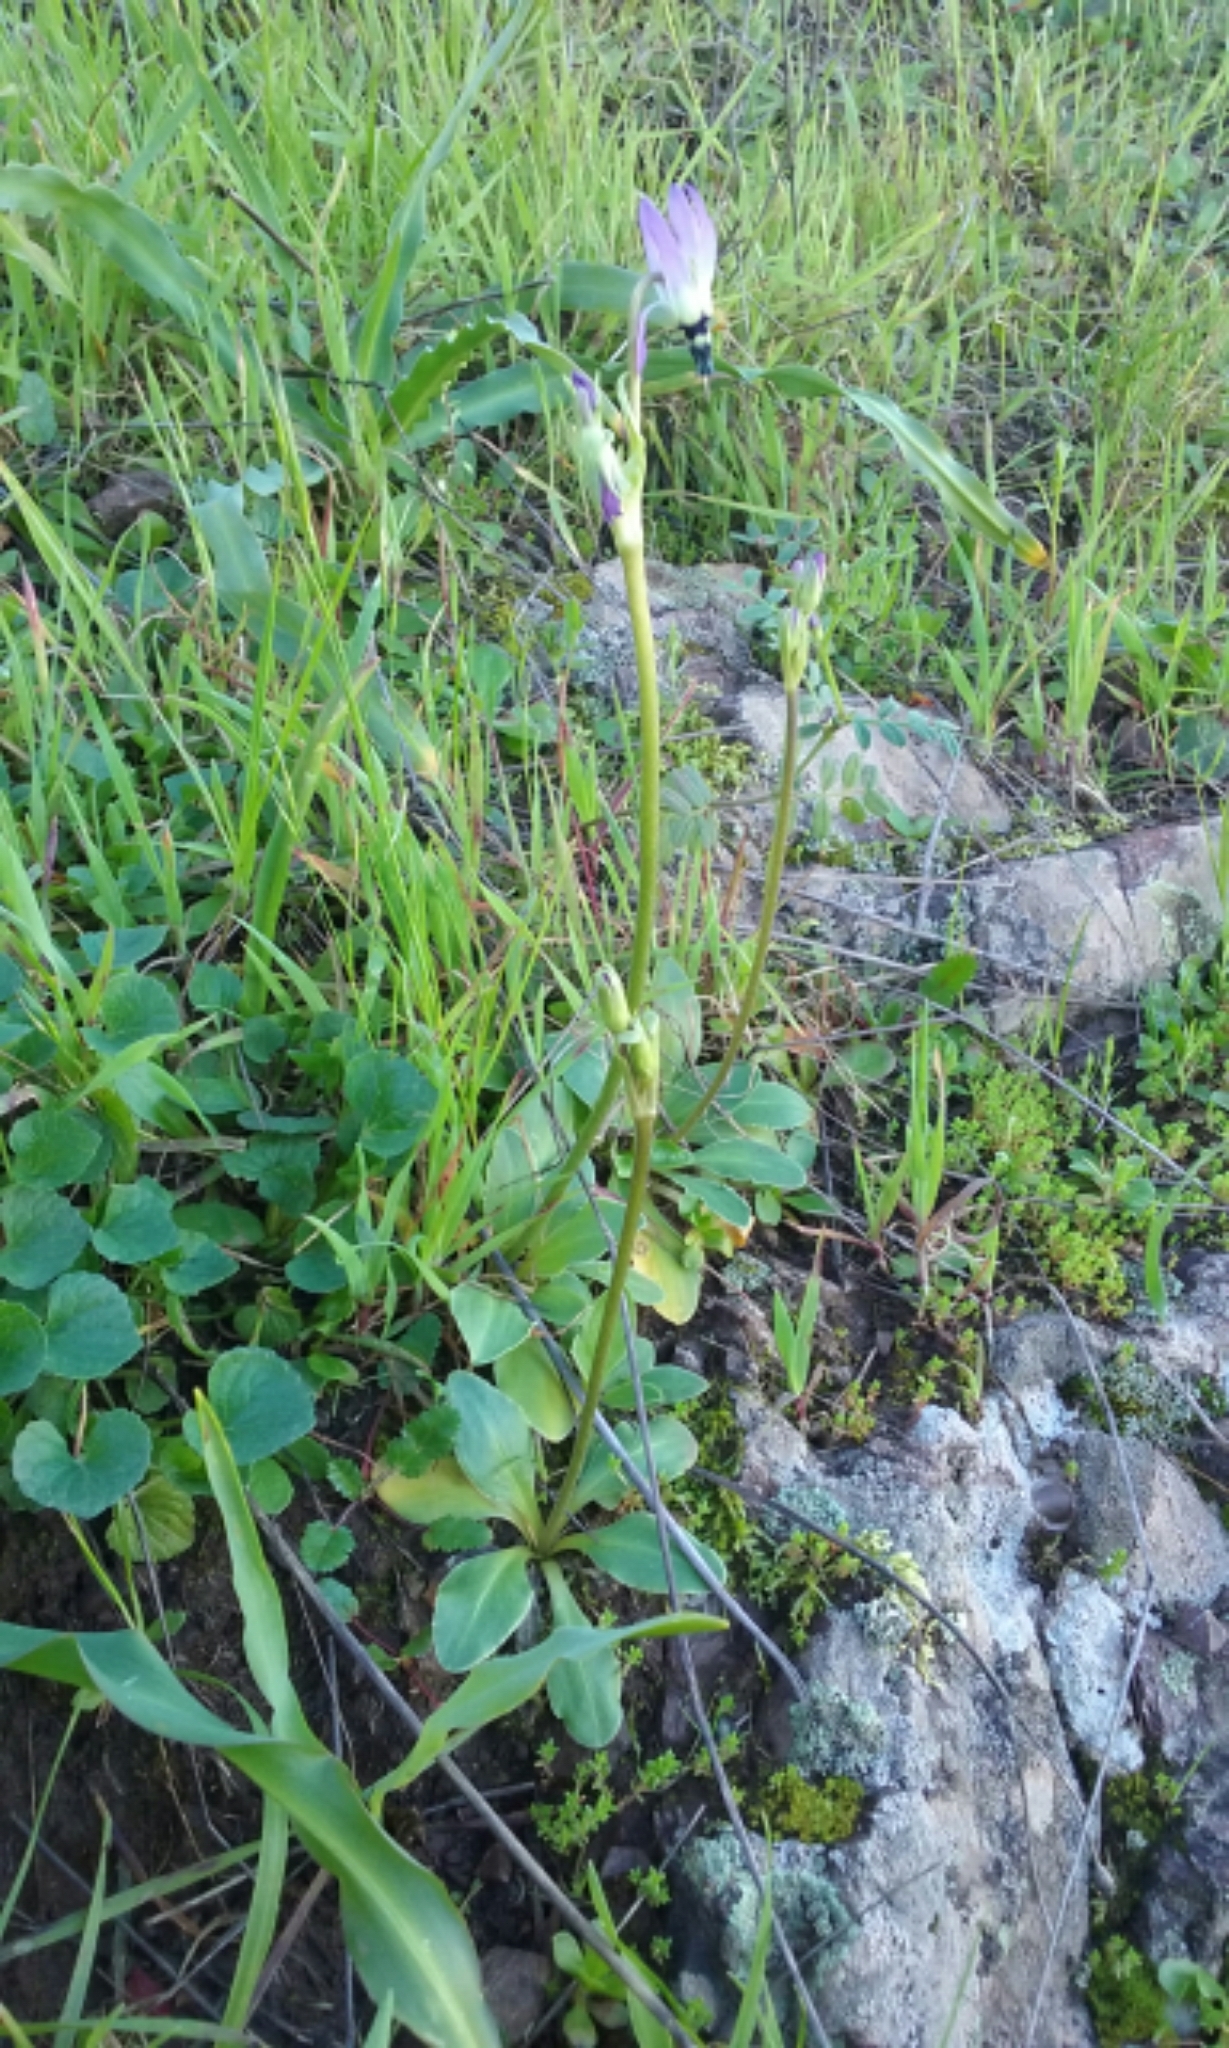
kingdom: Plantae
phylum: Tracheophyta
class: Magnoliopsida
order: Ericales
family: Primulaceae
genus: Dodecatheon
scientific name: Dodecatheon clevelandii
